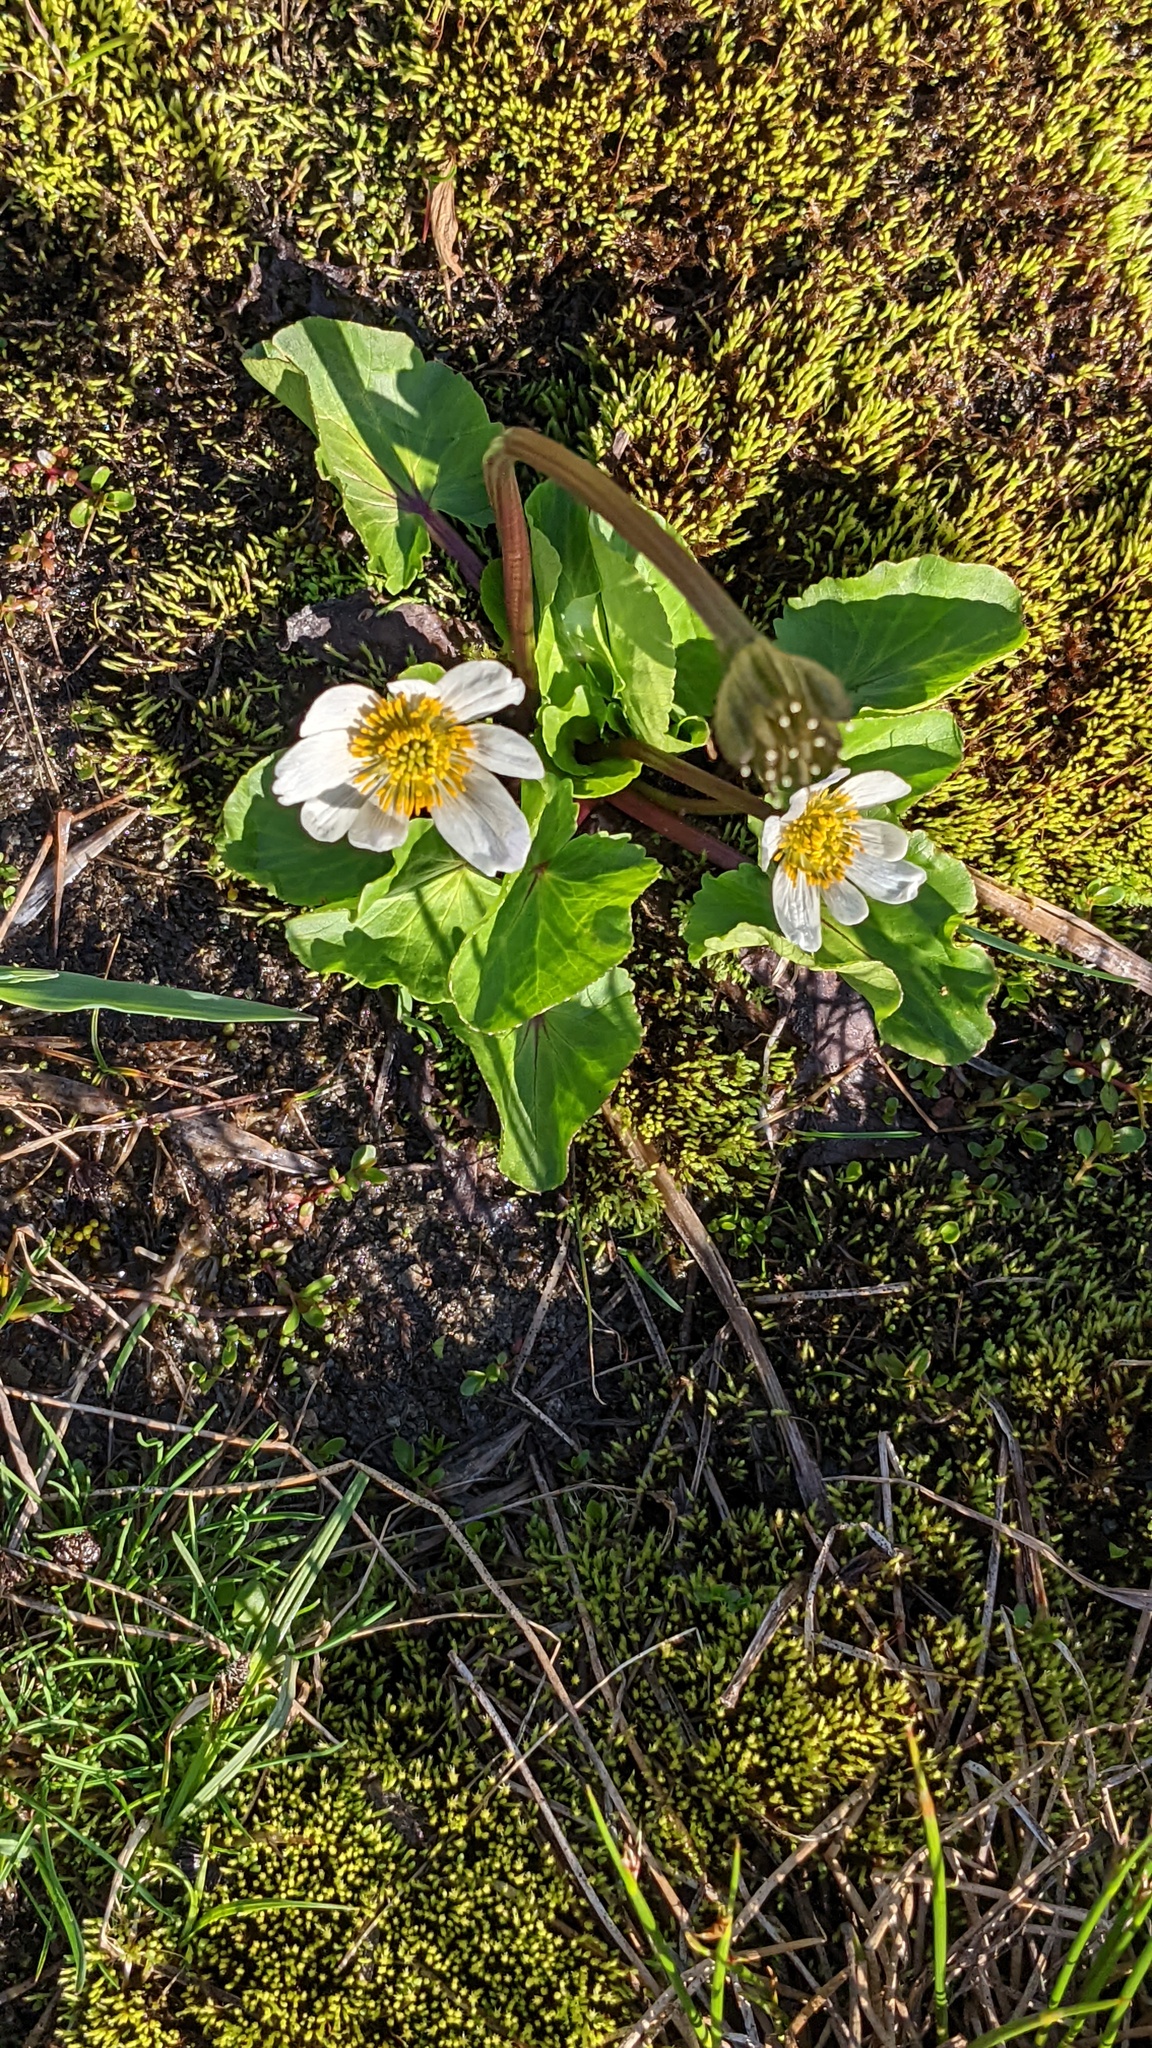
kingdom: Plantae
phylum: Tracheophyta
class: Magnoliopsida
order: Ranunculales
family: Ranunculaceae
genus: Caltha
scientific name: Caltha leptosepala
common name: Elkslip
